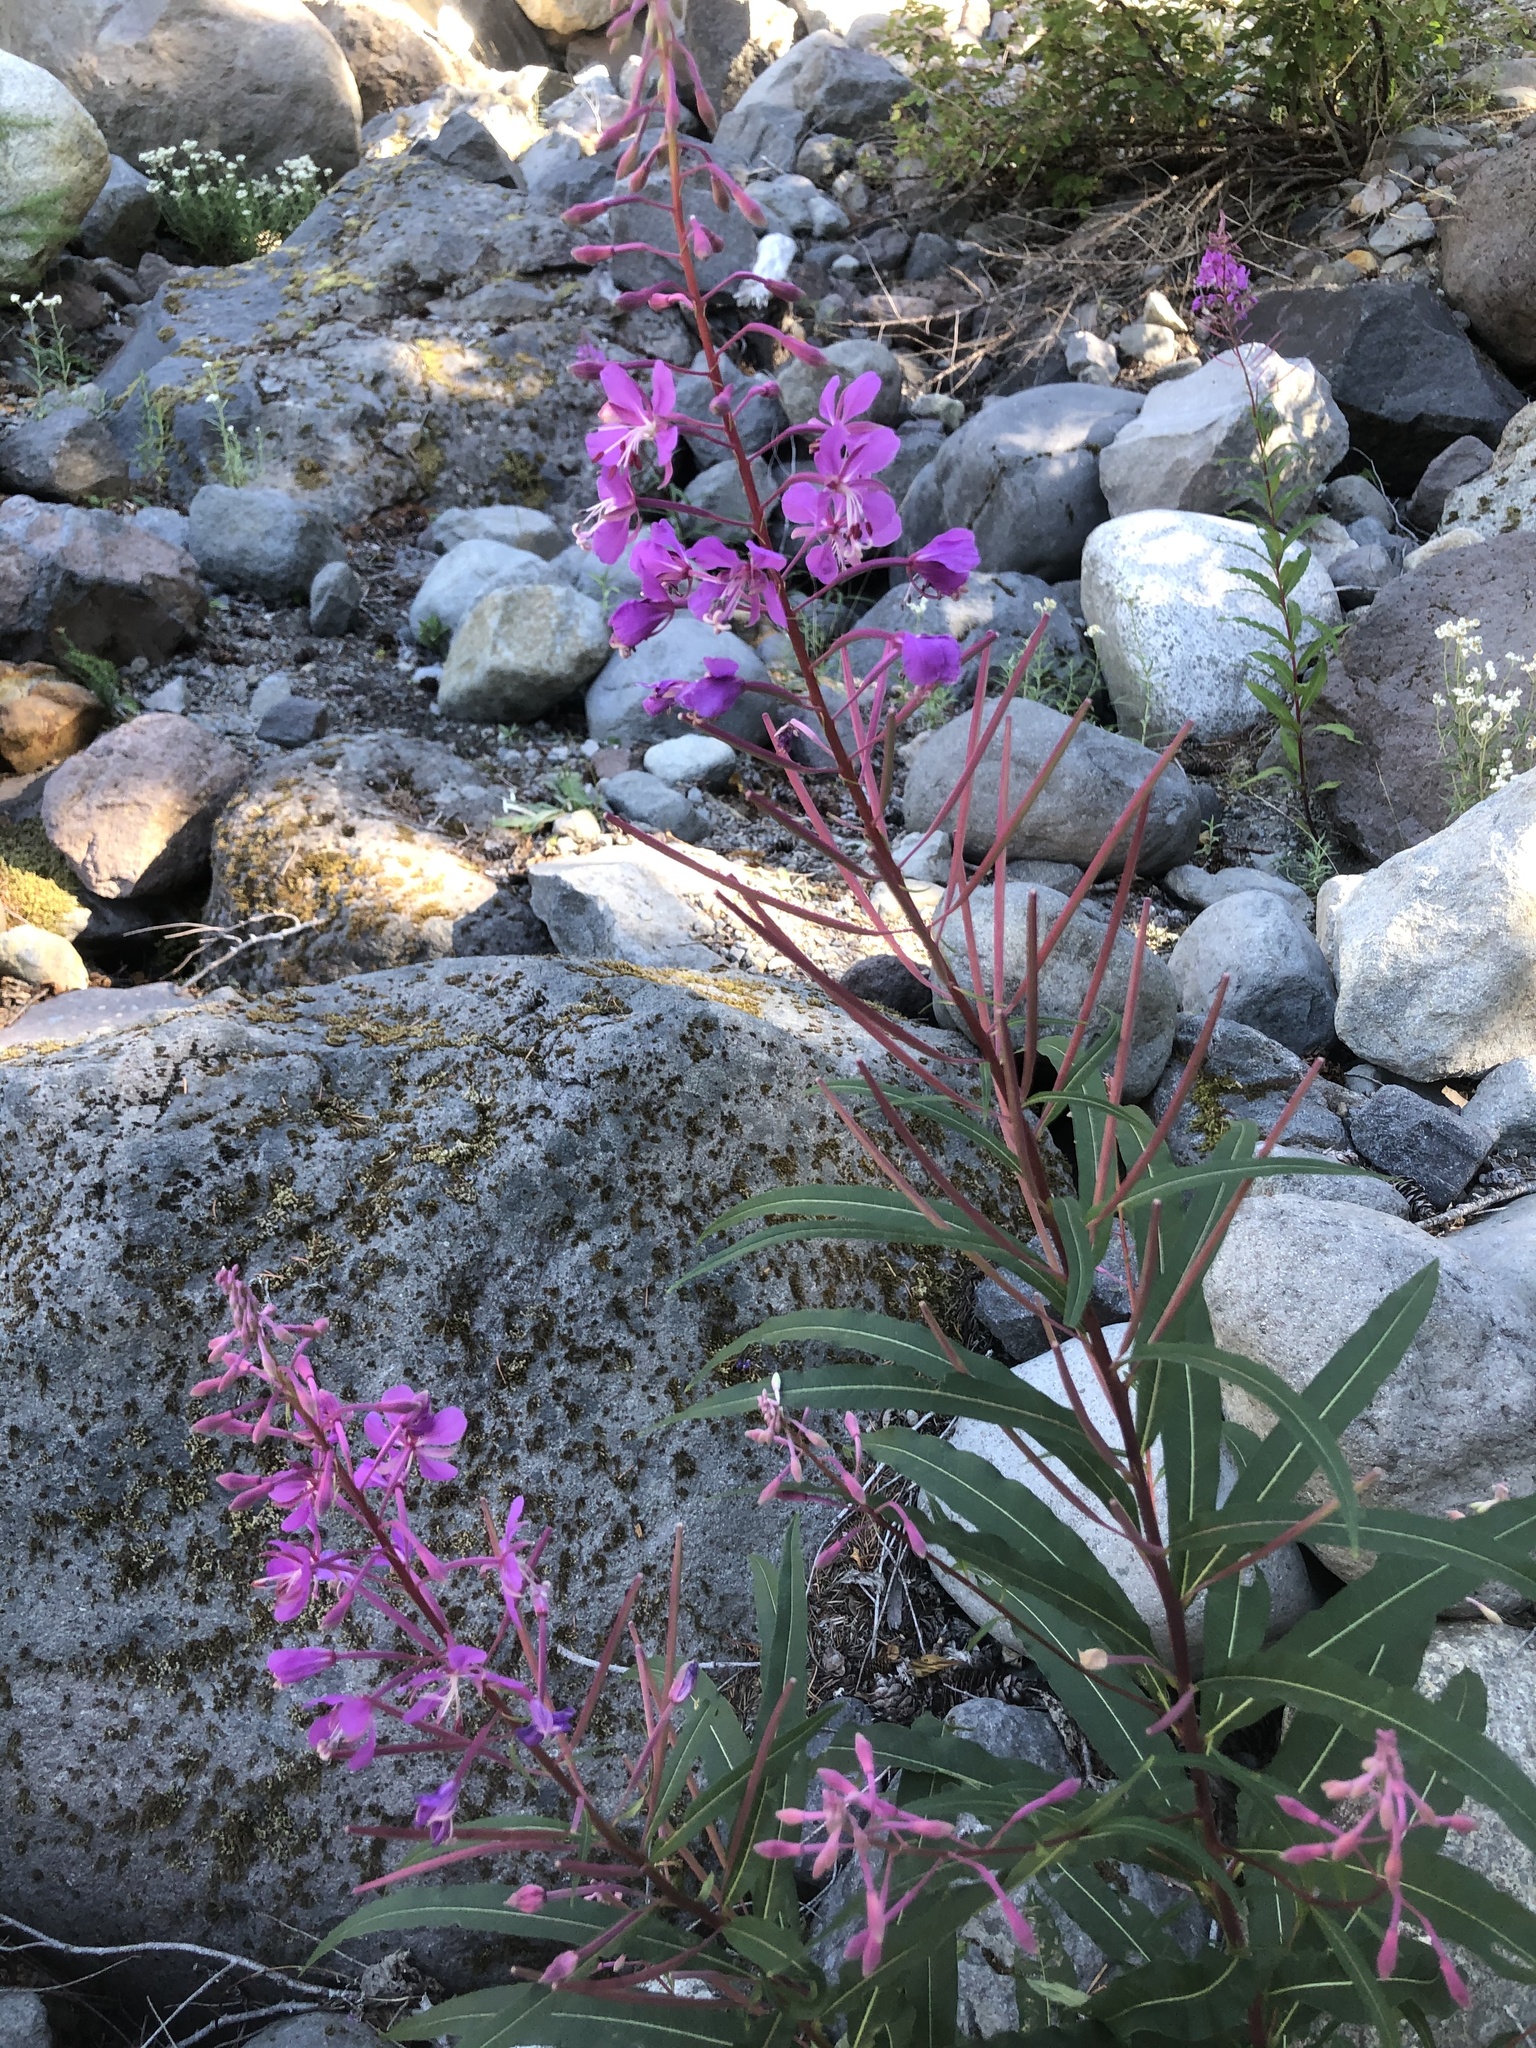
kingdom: Plantae
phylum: Tracheophyta
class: Magnoliopsida
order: Myrtales
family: Onagraceae
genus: Chamaenerion
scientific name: Chamaenerion angustifolium
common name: Fireweed
